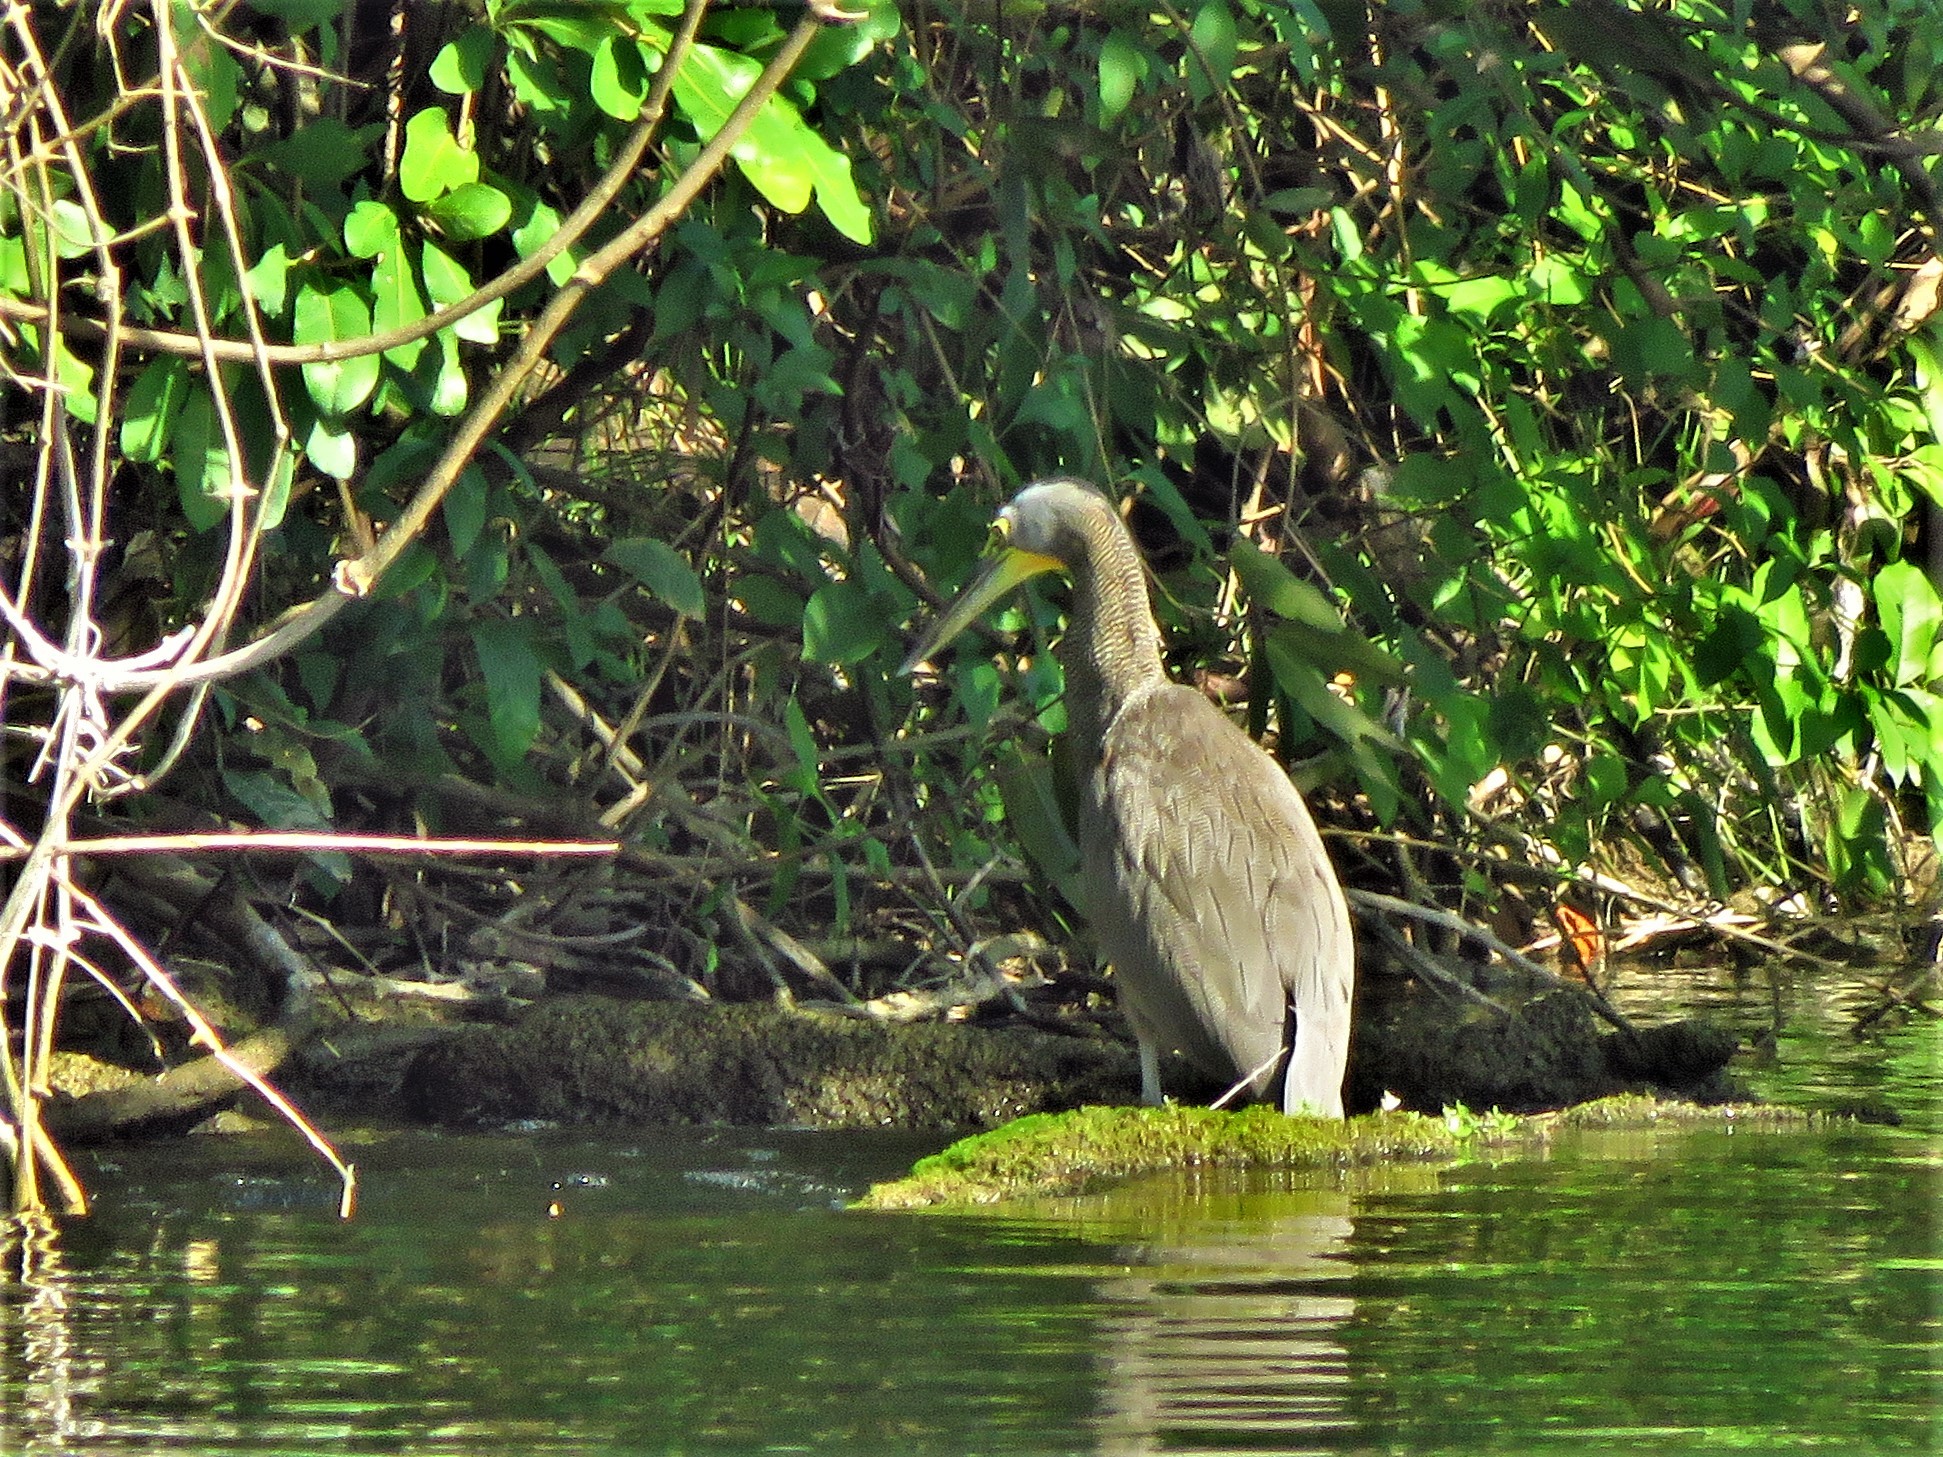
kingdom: Animalia
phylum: Chordata
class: Aves
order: Pelecaniformes
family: Ardeidae
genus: Tigrisoma
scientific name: Tigrisoma mexicanum
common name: Bare-throated tiger-heron
